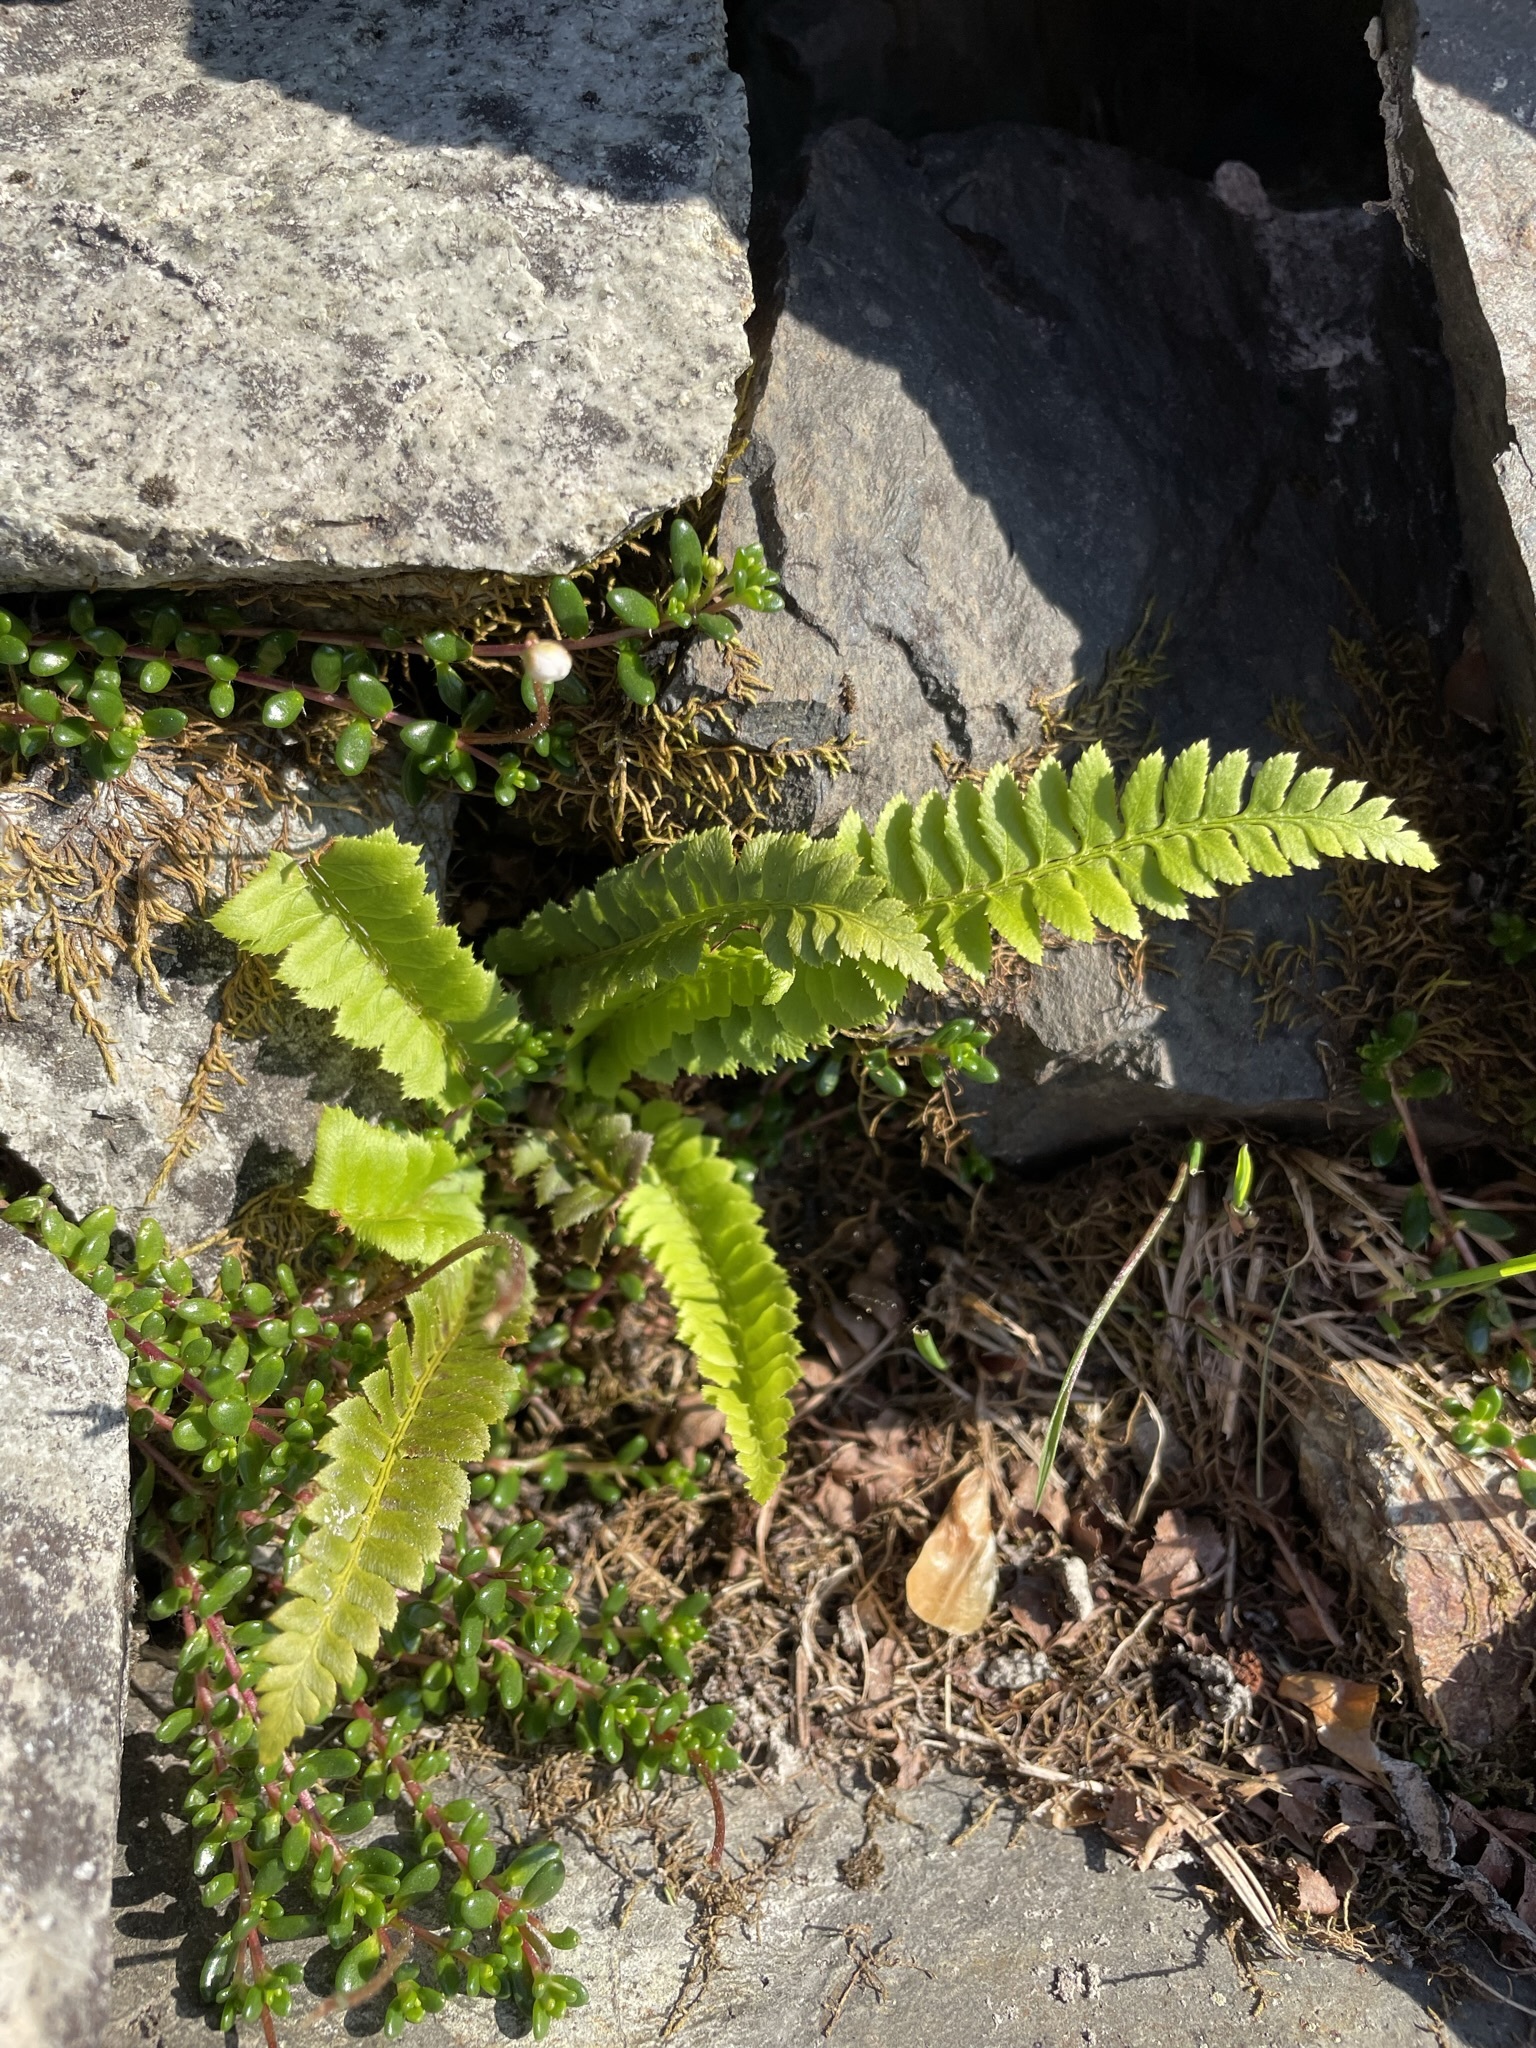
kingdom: Plantae
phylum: Tracheophyta
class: Polypodiopsida
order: Polypodiales
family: Dryopteridaceae
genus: Polystichum
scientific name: Polystichum lonchitis
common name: Holly fern
